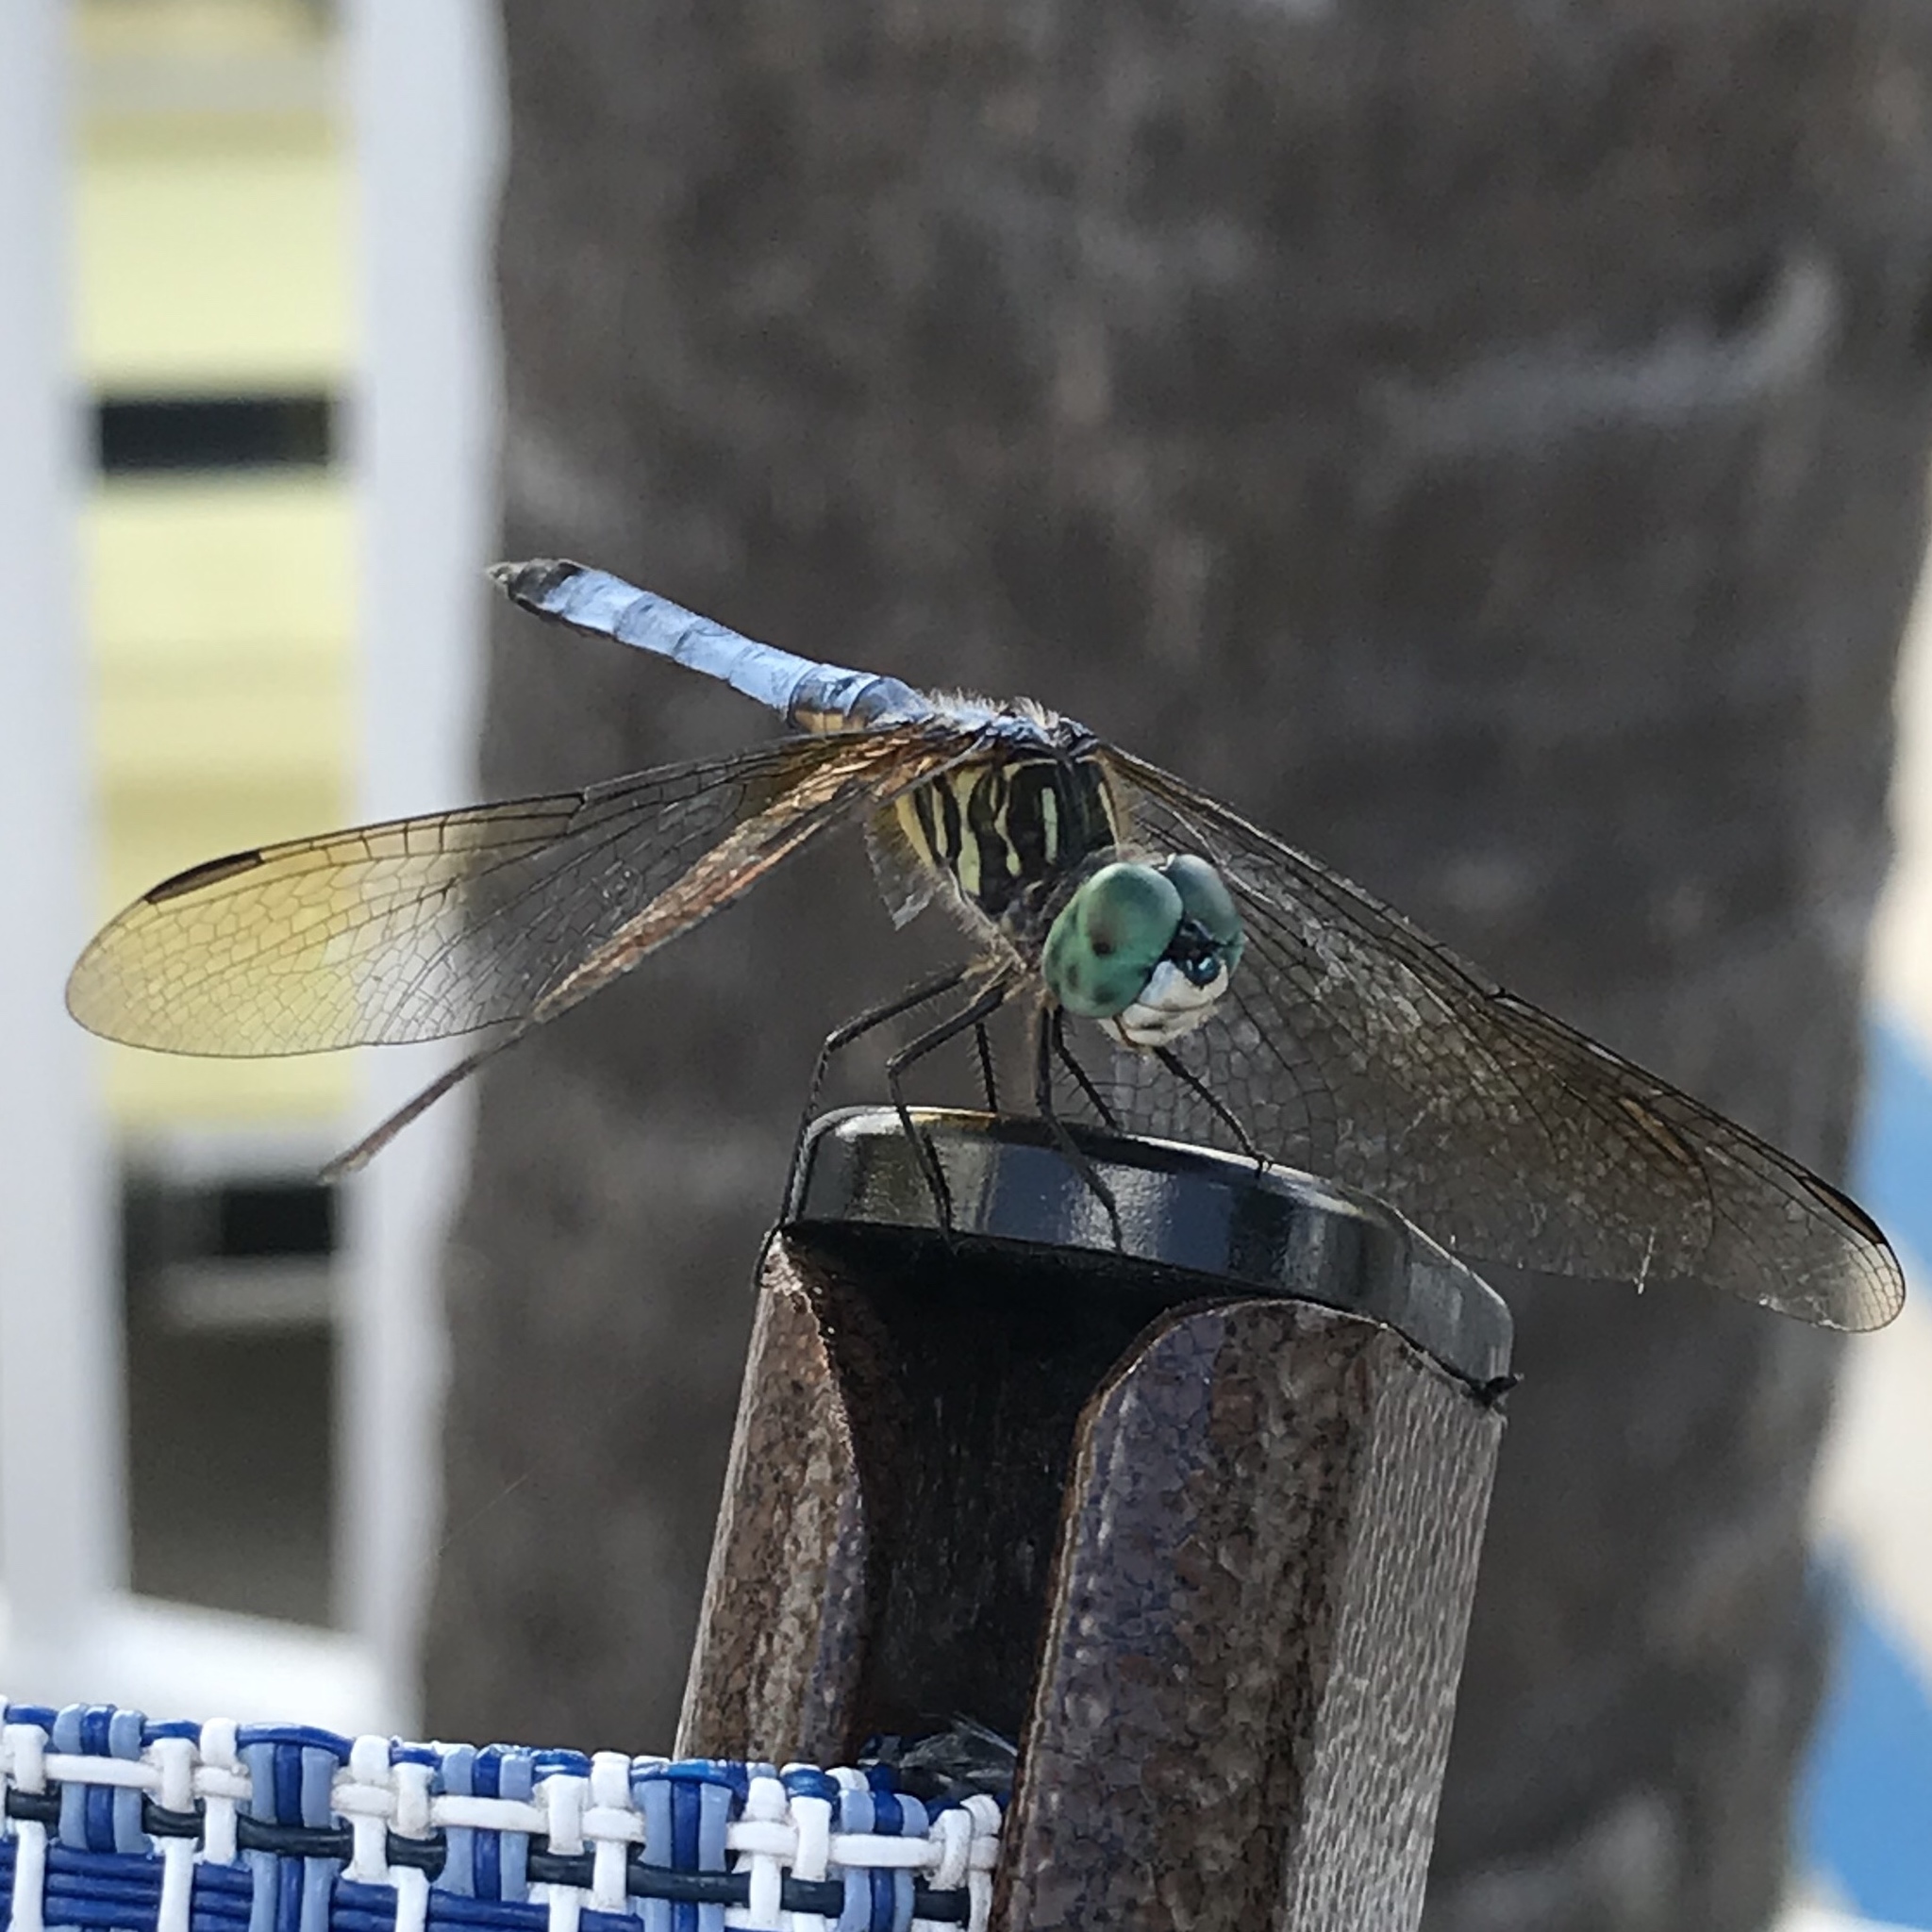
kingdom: Animalia
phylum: Arthropoda
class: Insecta
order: Odonata
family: Libellulidae
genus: Pachydiplax
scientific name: Pachydiplax longipennis
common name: Blue dasher
